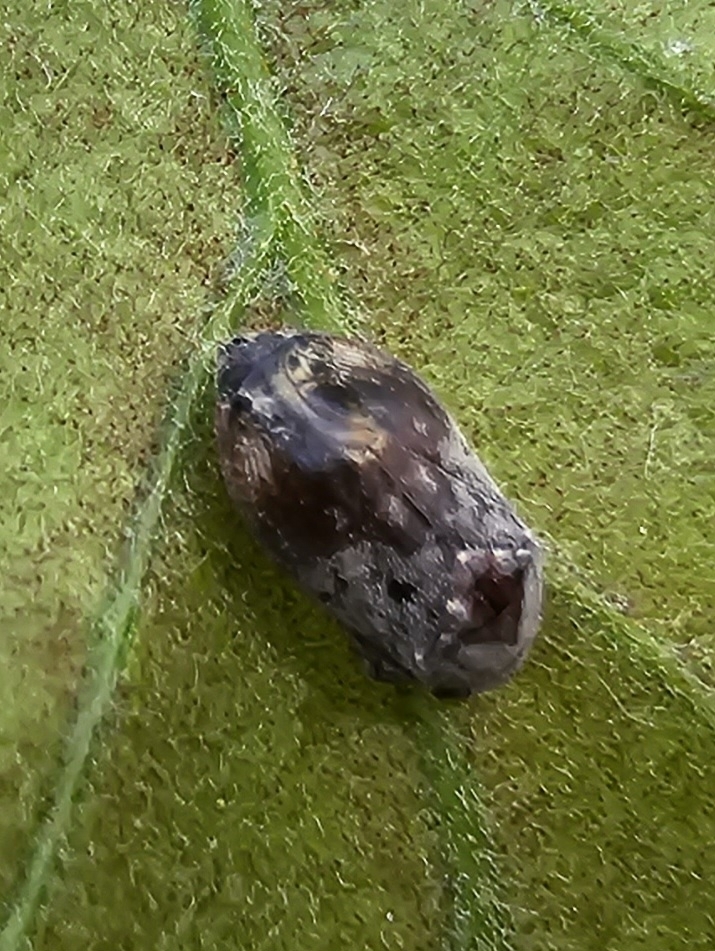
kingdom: Animalia
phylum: Arthropoda
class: Insecta
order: Hemiptera
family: Cicadellidae
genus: Penthimia
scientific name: Penthimia americana
